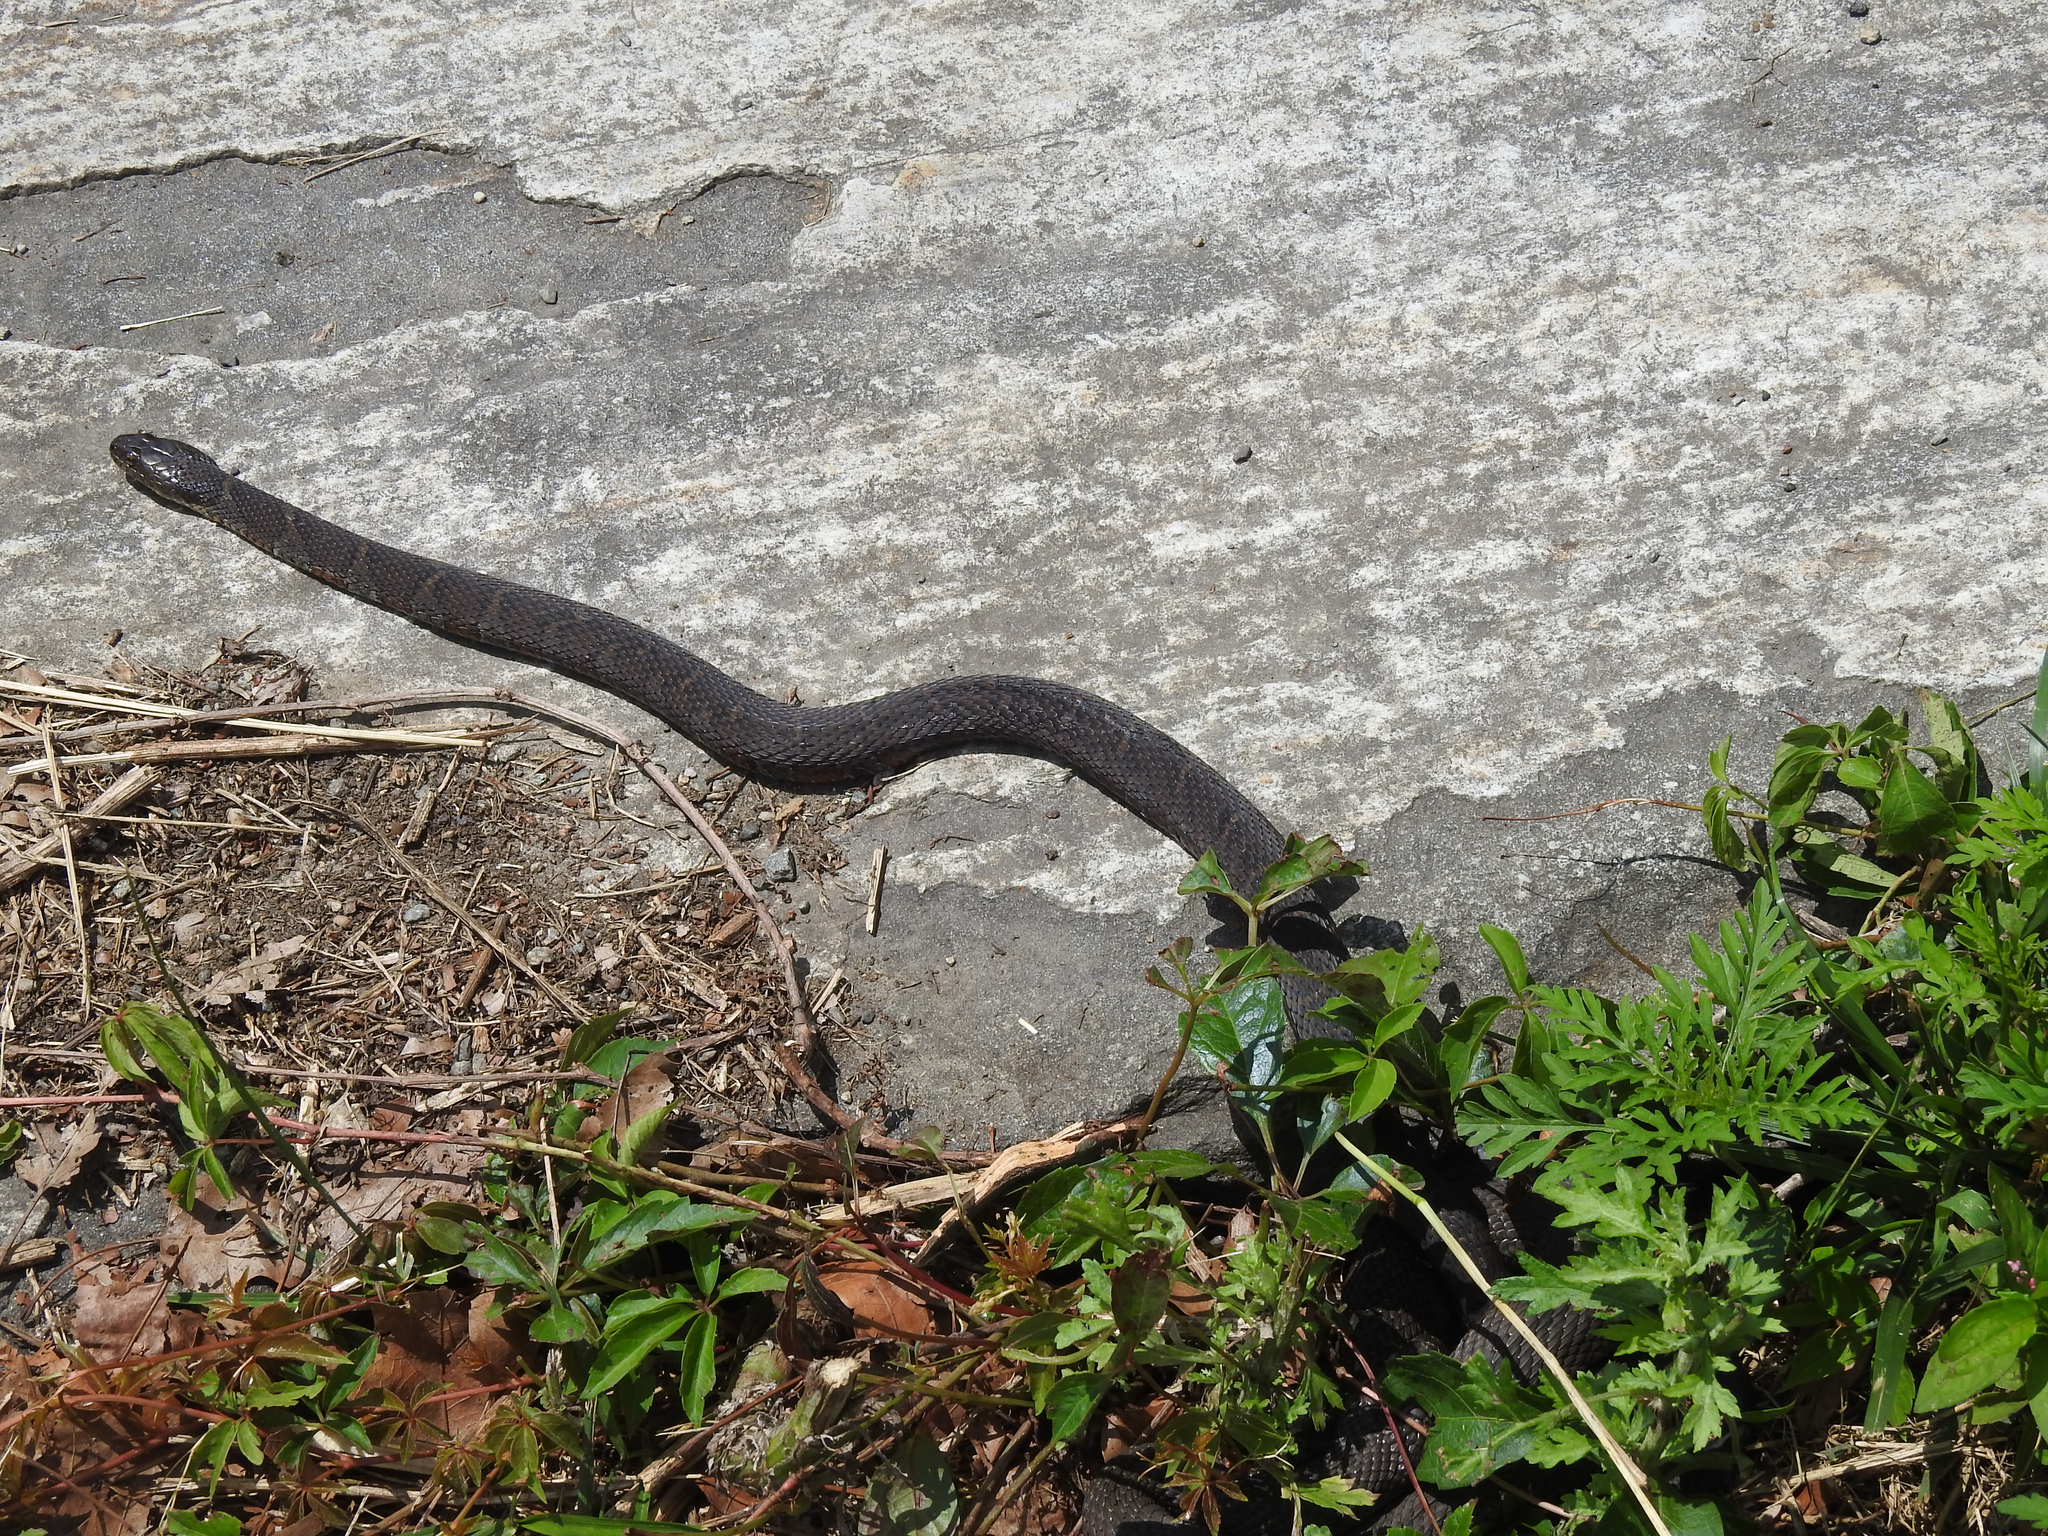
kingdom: Animalia
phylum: Chordata
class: Squamata
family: Colubridae
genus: Nerodia
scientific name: Nerodia sipedon
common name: Northern water snake
